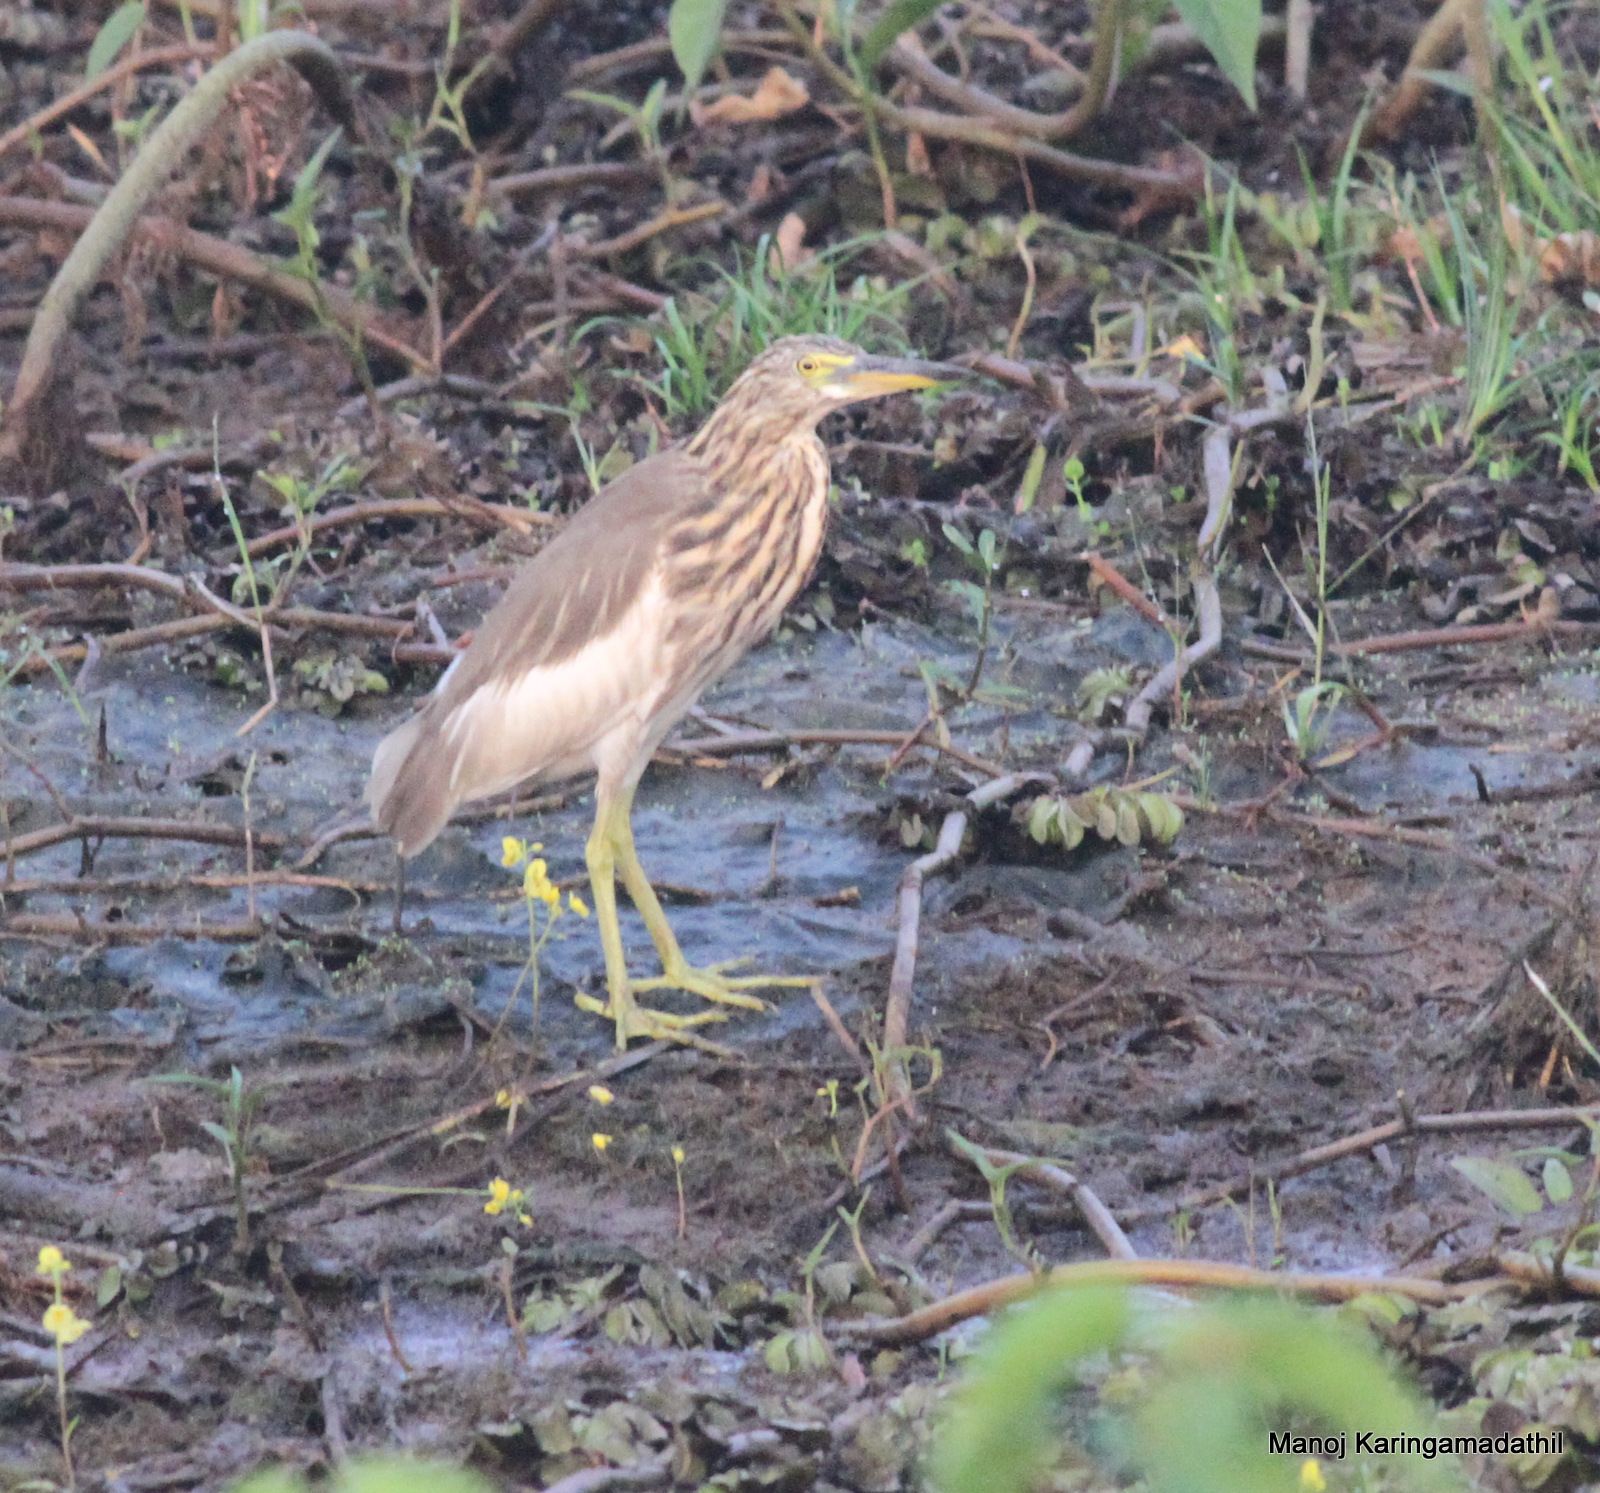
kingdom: Animalia
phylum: Chordata
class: Aves
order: Pelecaniformes
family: Ardeidae
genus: Ardeola
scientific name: Ardeola grayii
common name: Indian pond heron
